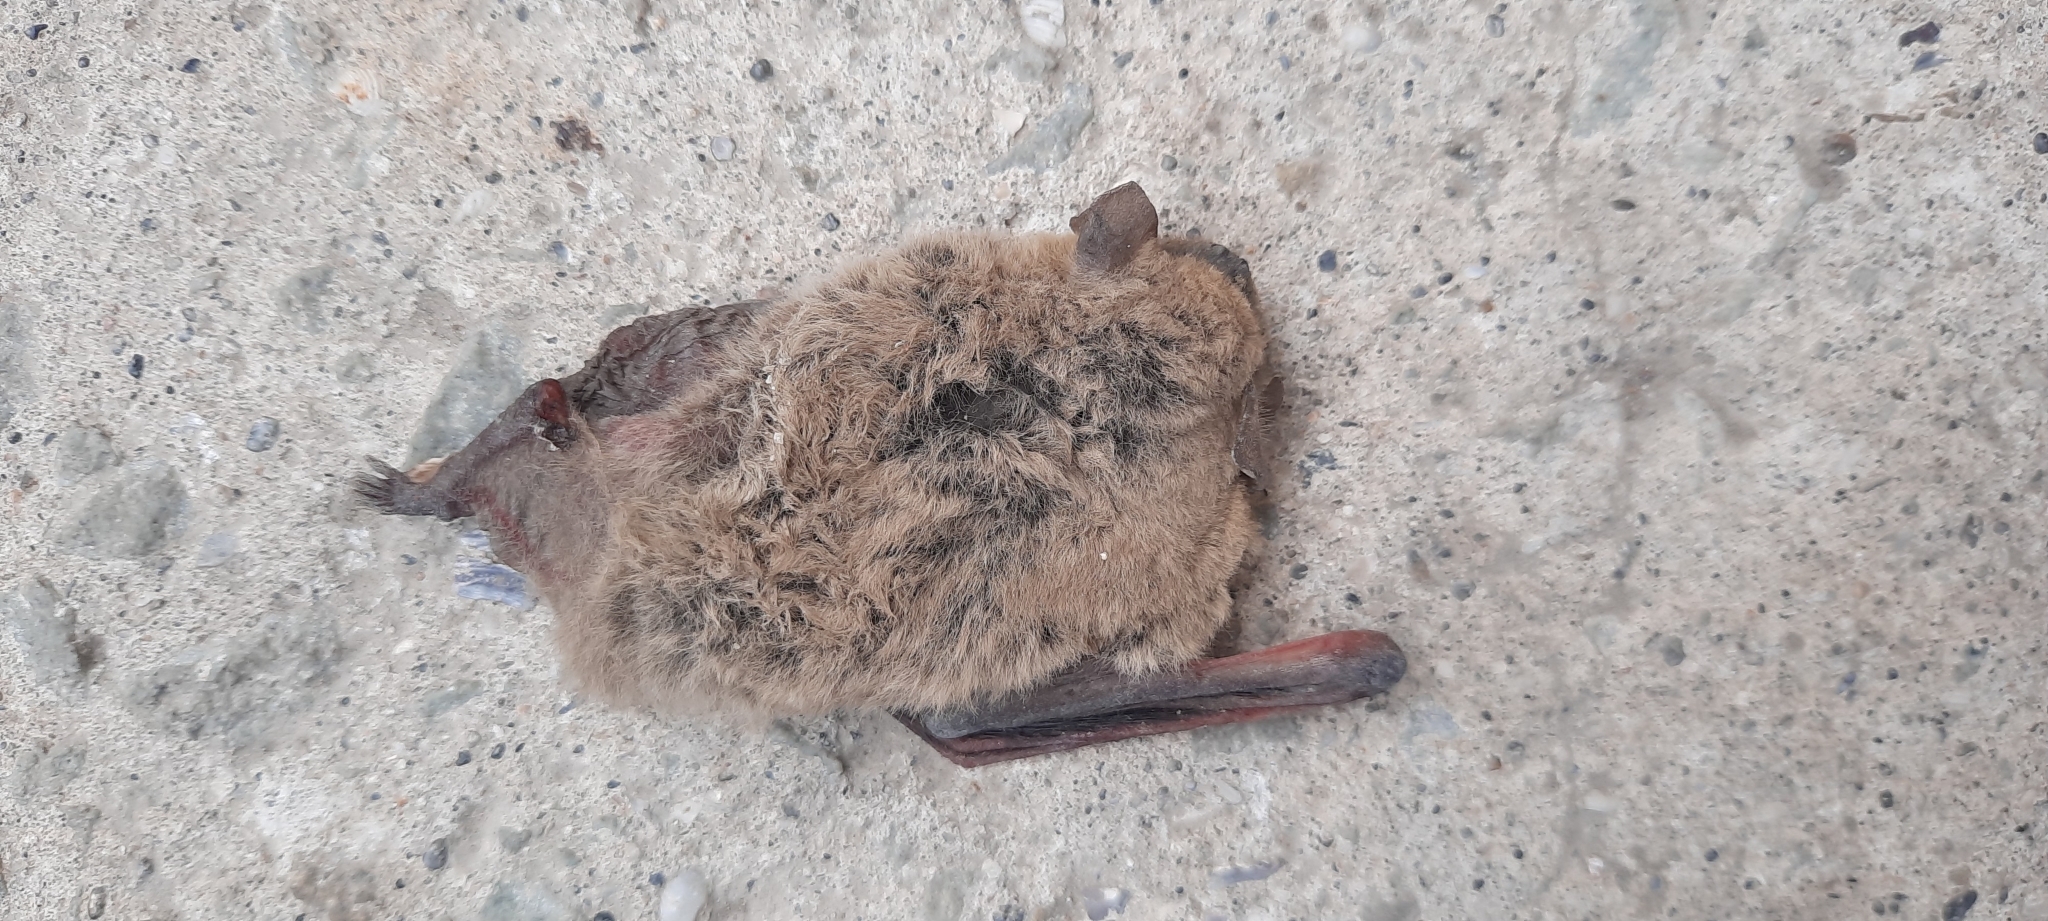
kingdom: Animalia
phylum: Chordata
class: Mammalia
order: Chiroptera
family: Vespertilionidae
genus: Pipistrellus
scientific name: Pipistrellus kuhlii
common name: Kuhl's pipistrelle
